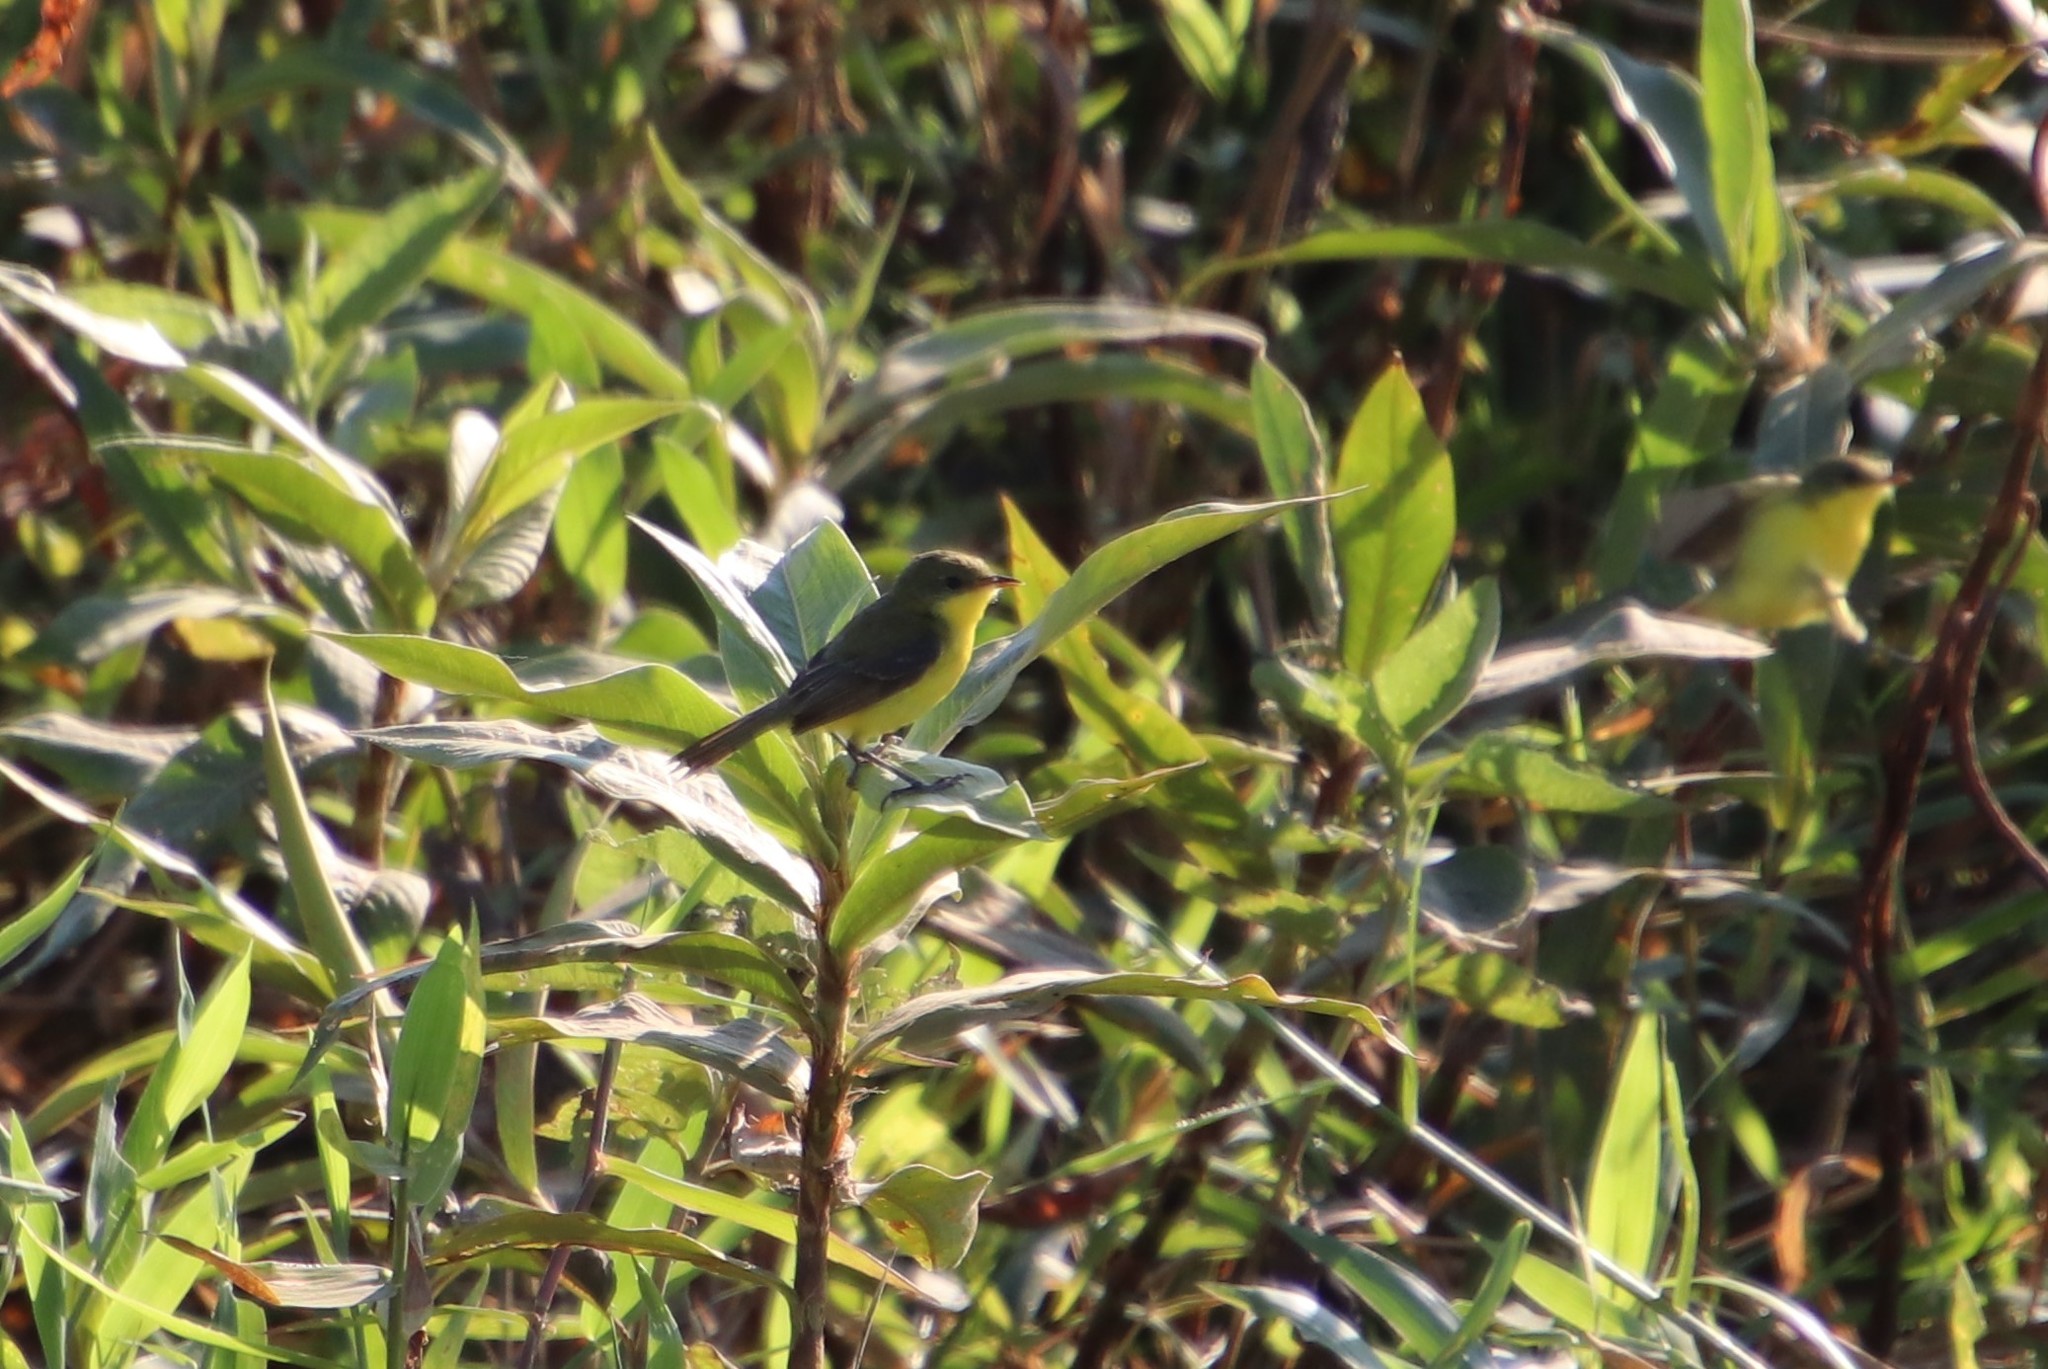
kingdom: Animalia
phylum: Chordata
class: Aves
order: Passeriformes
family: Tyrannidae
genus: Pseudocolopteryx
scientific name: Pseudocolopteryx acutipennis
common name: Subtropical doradito
